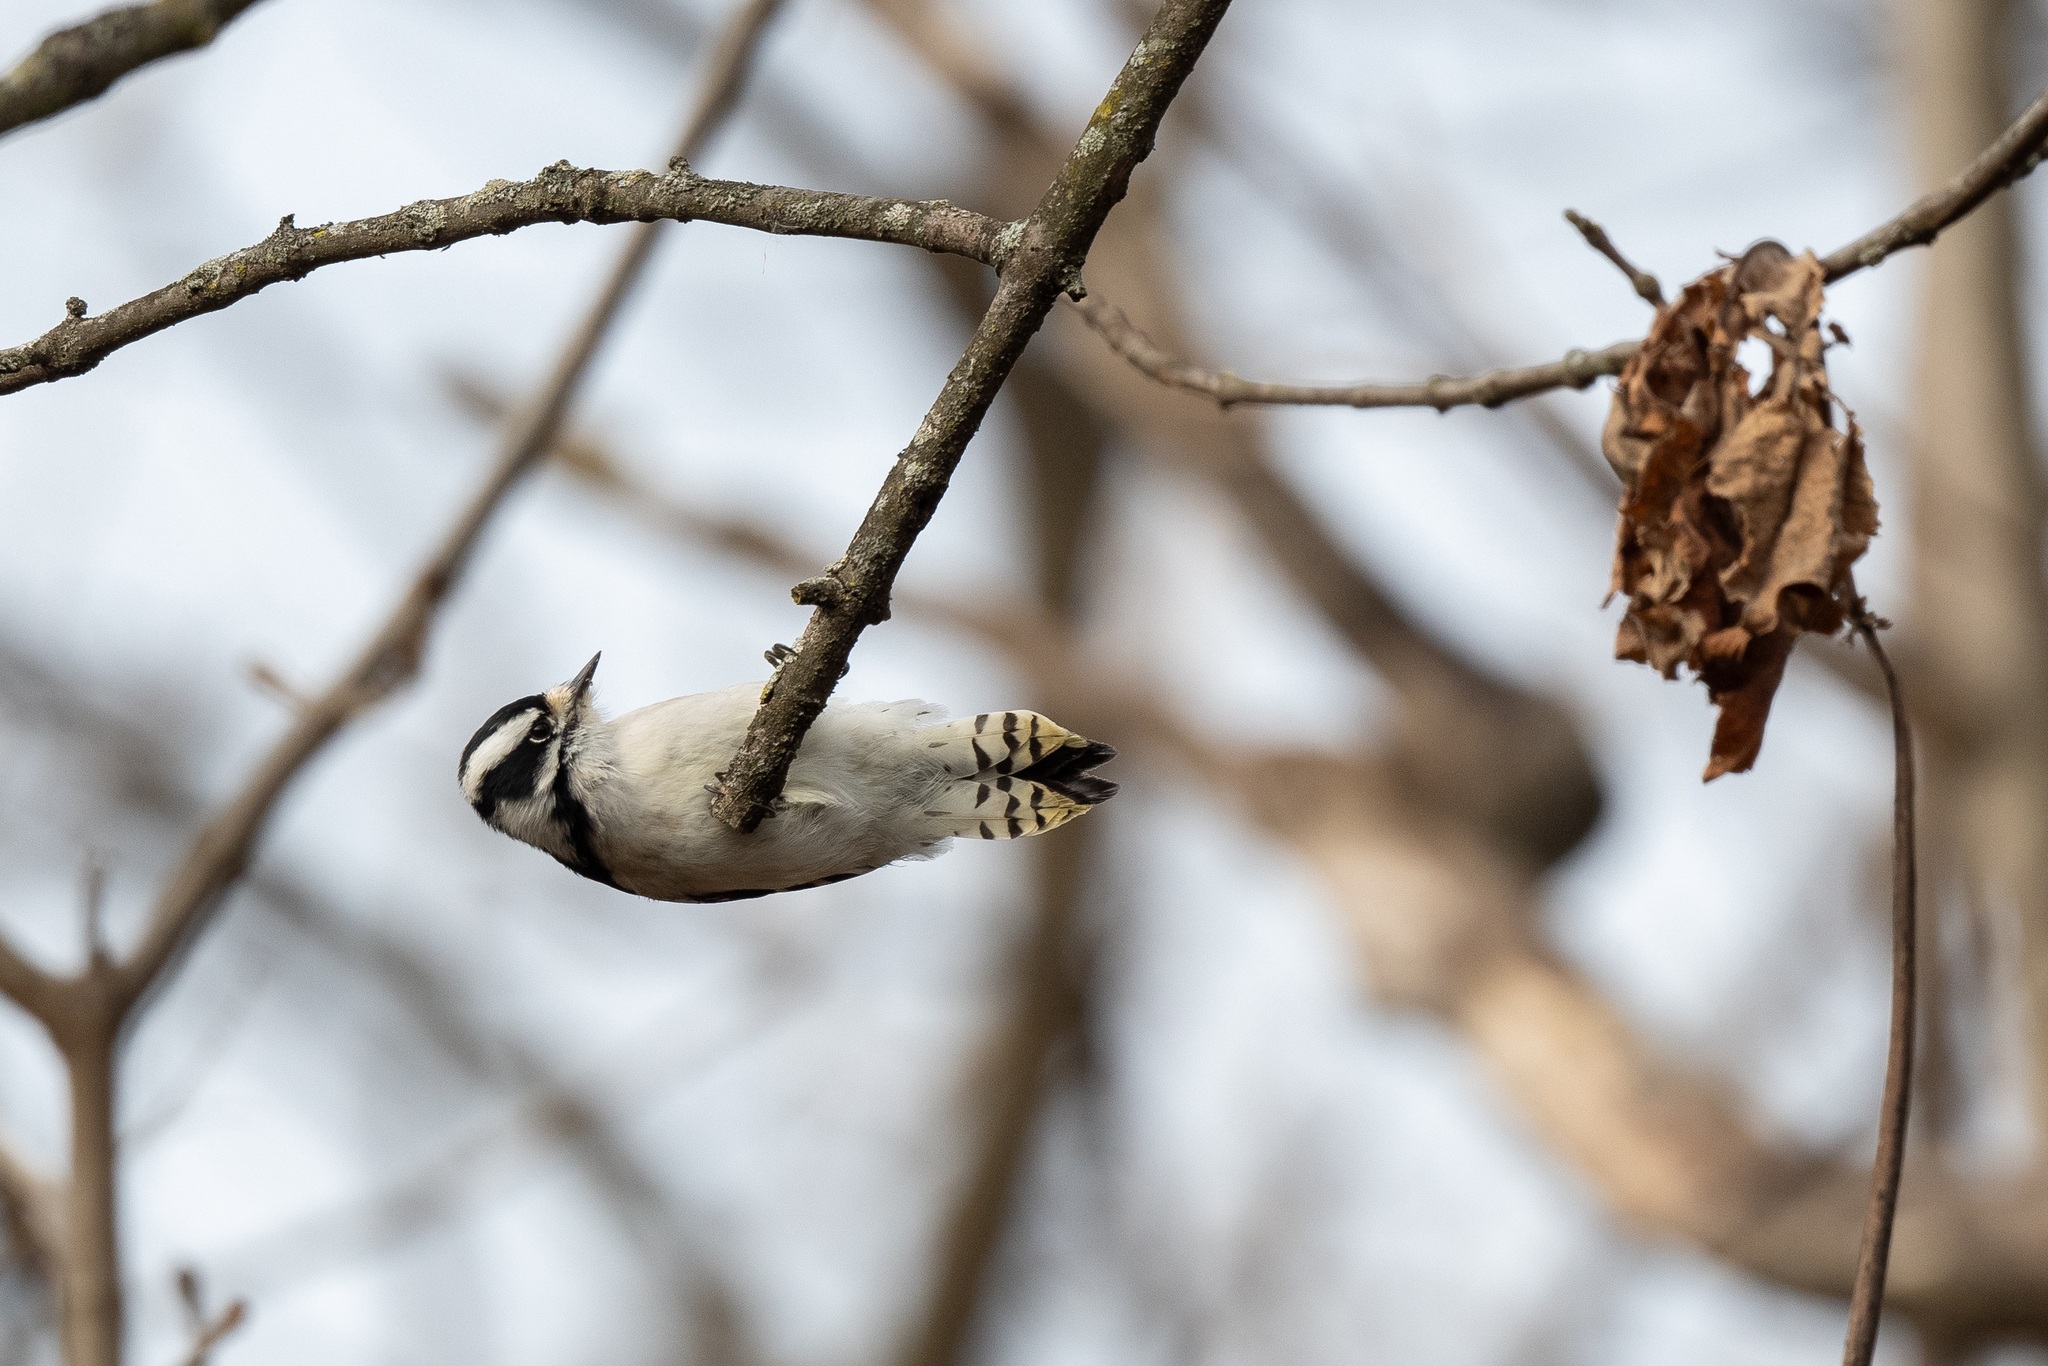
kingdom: Animalia
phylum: Chordata
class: Aves
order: Piciformes
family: Picidae
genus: Dryobates
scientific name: Dryobates pubescens
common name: Downy woodpecker
